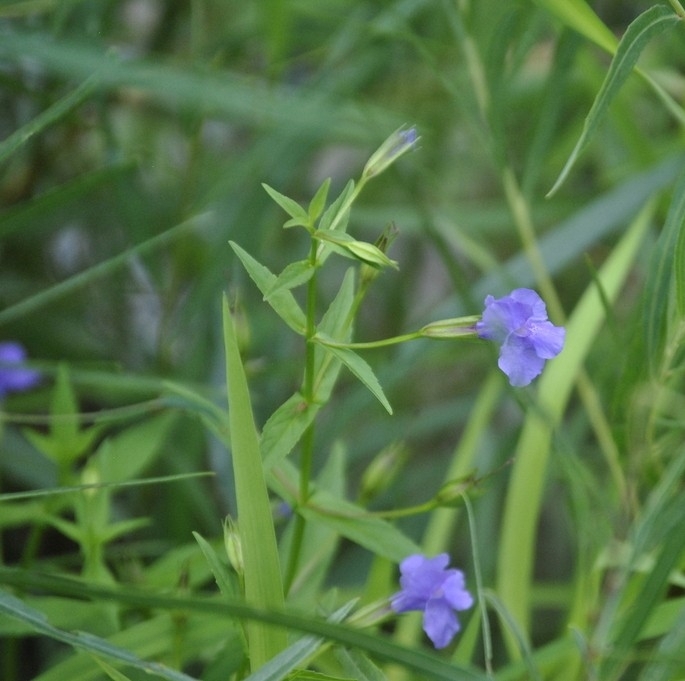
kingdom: Plantae
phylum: Tracheophyta
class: Magnoliopsida
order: Lamiales
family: Phrymaceae
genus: Mimulus
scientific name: Mimulus ringens
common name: Allegheny monkeyflower
